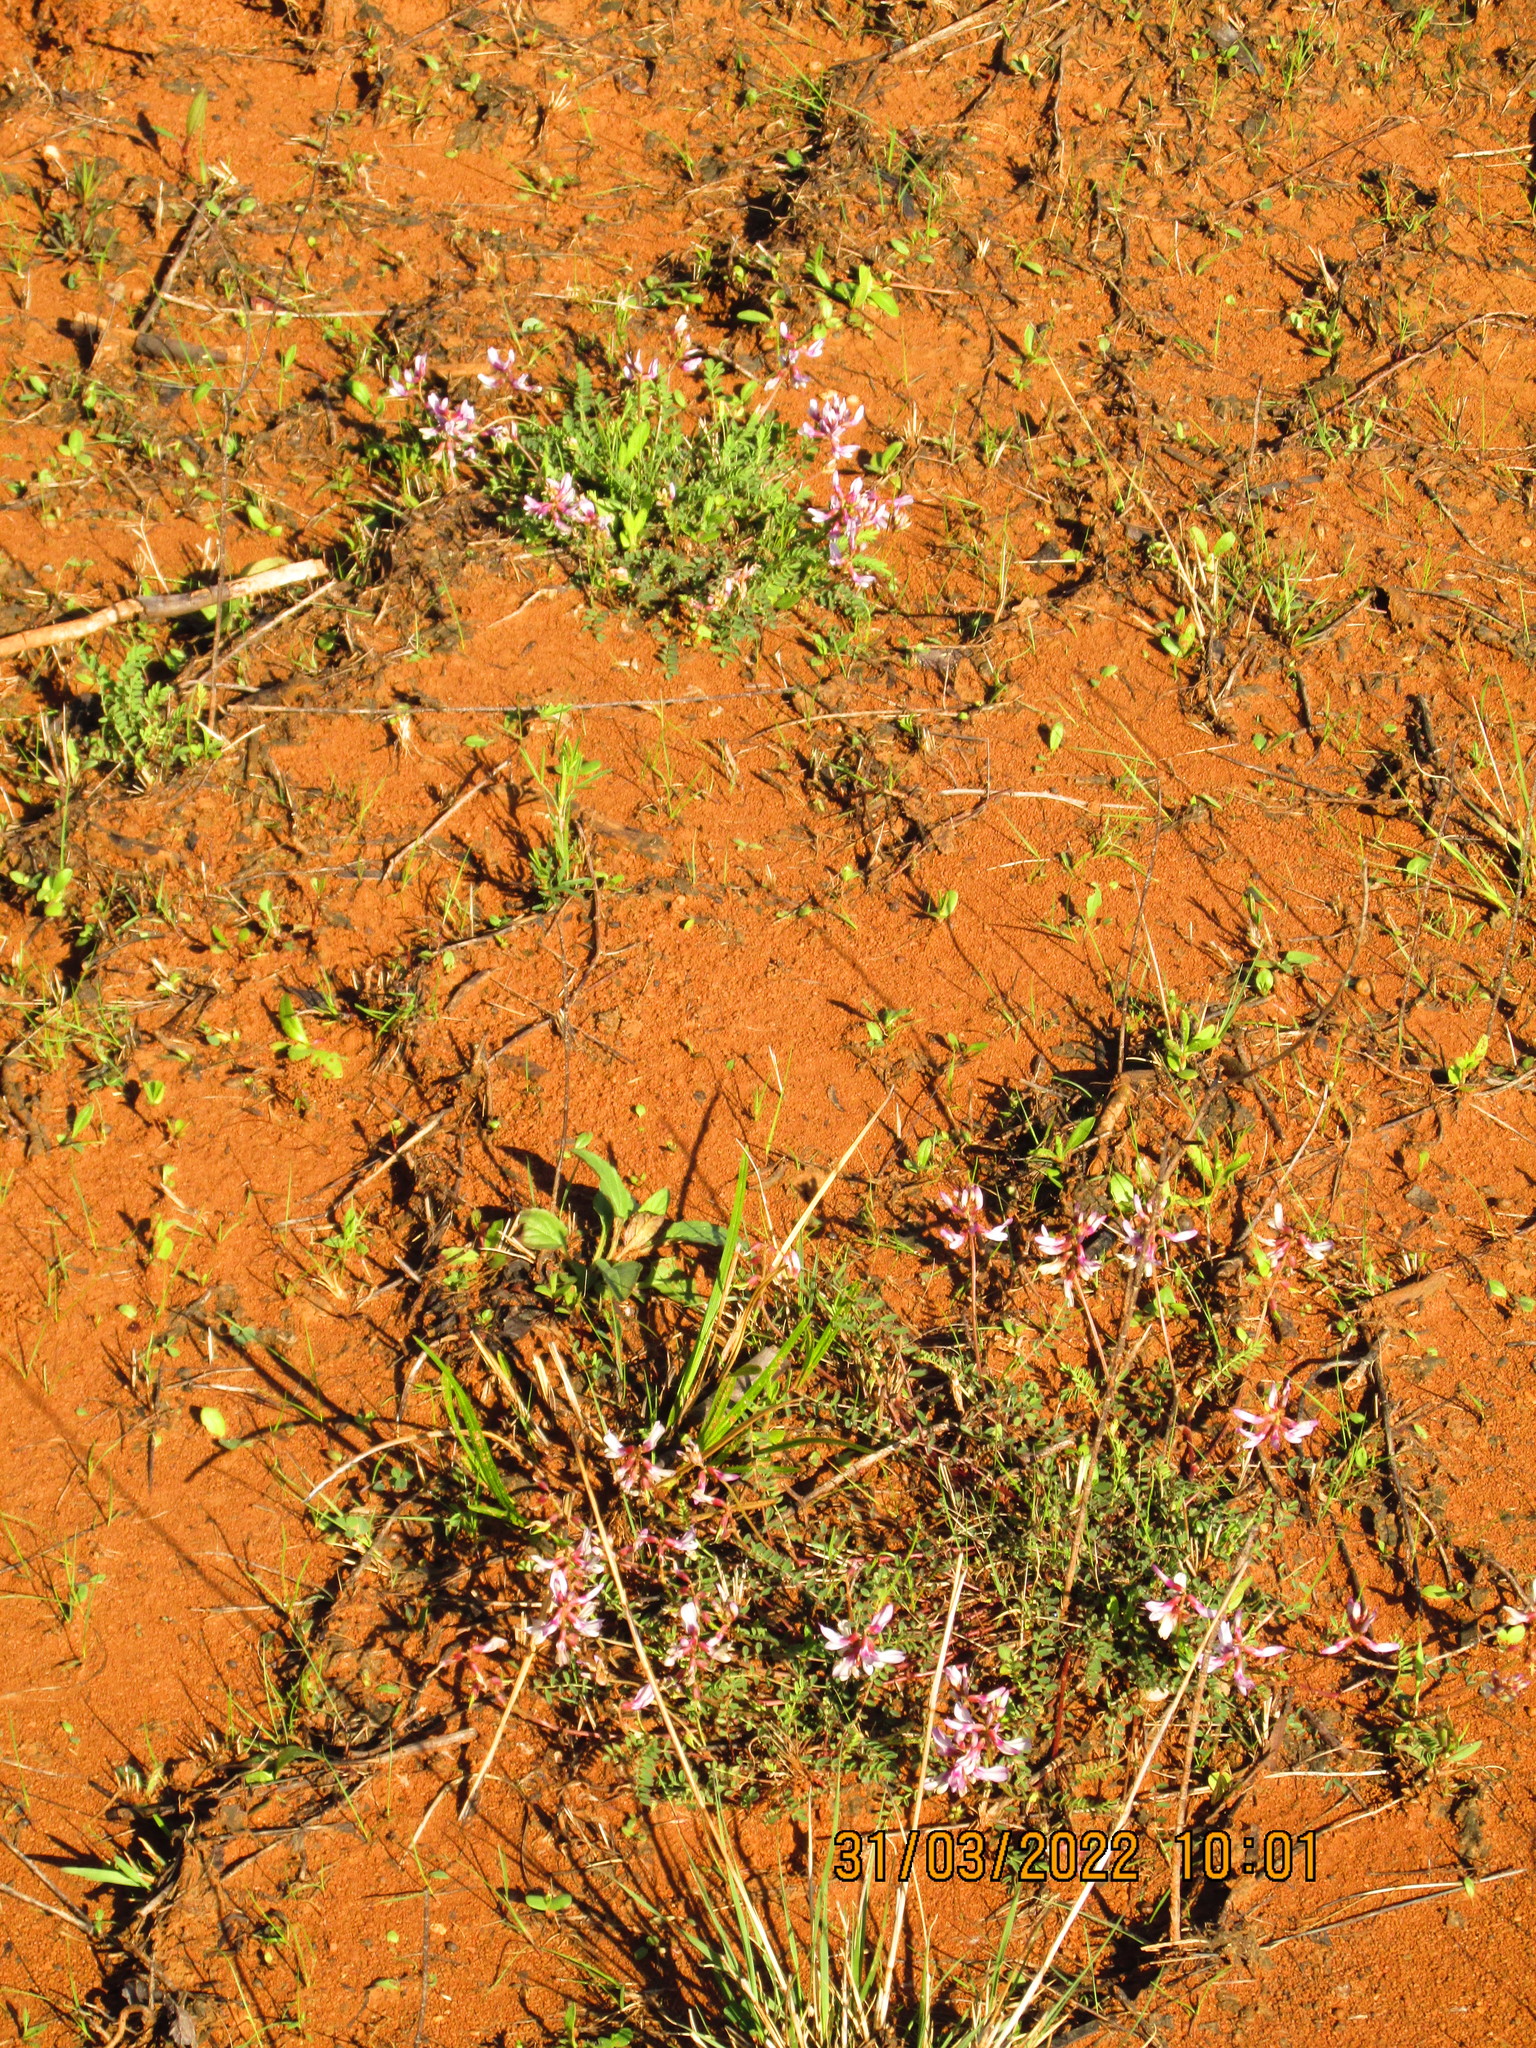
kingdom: Plantae
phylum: Tracheophyta
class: Magnoliopsida
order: Fabales
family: Fabaceae
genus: Astragalus
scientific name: Astragalus distortus
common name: Ozark milk-vetch
